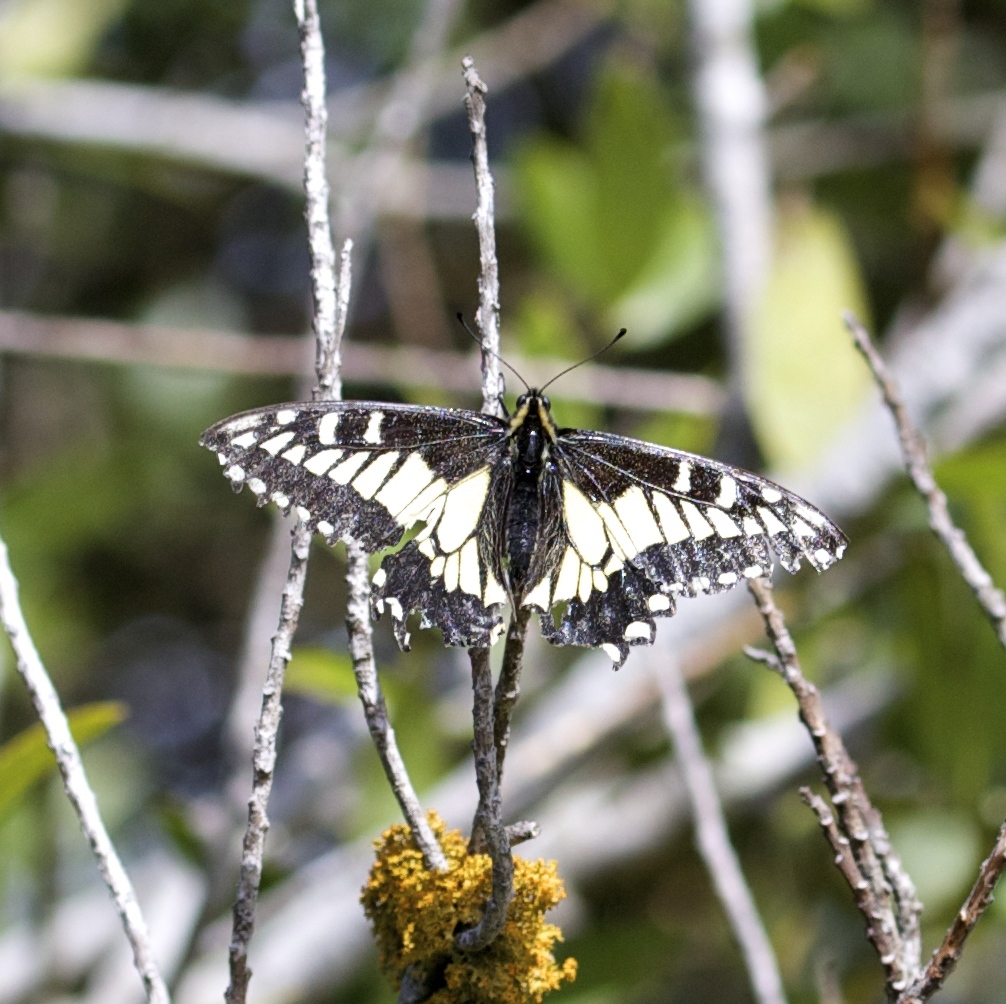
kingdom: Animalia
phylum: Arthropoda
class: Insecta
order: Lepidoptera
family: Papilionidae
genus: Papilio
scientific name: Papilio zelicaon
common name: Anise swallowtail
